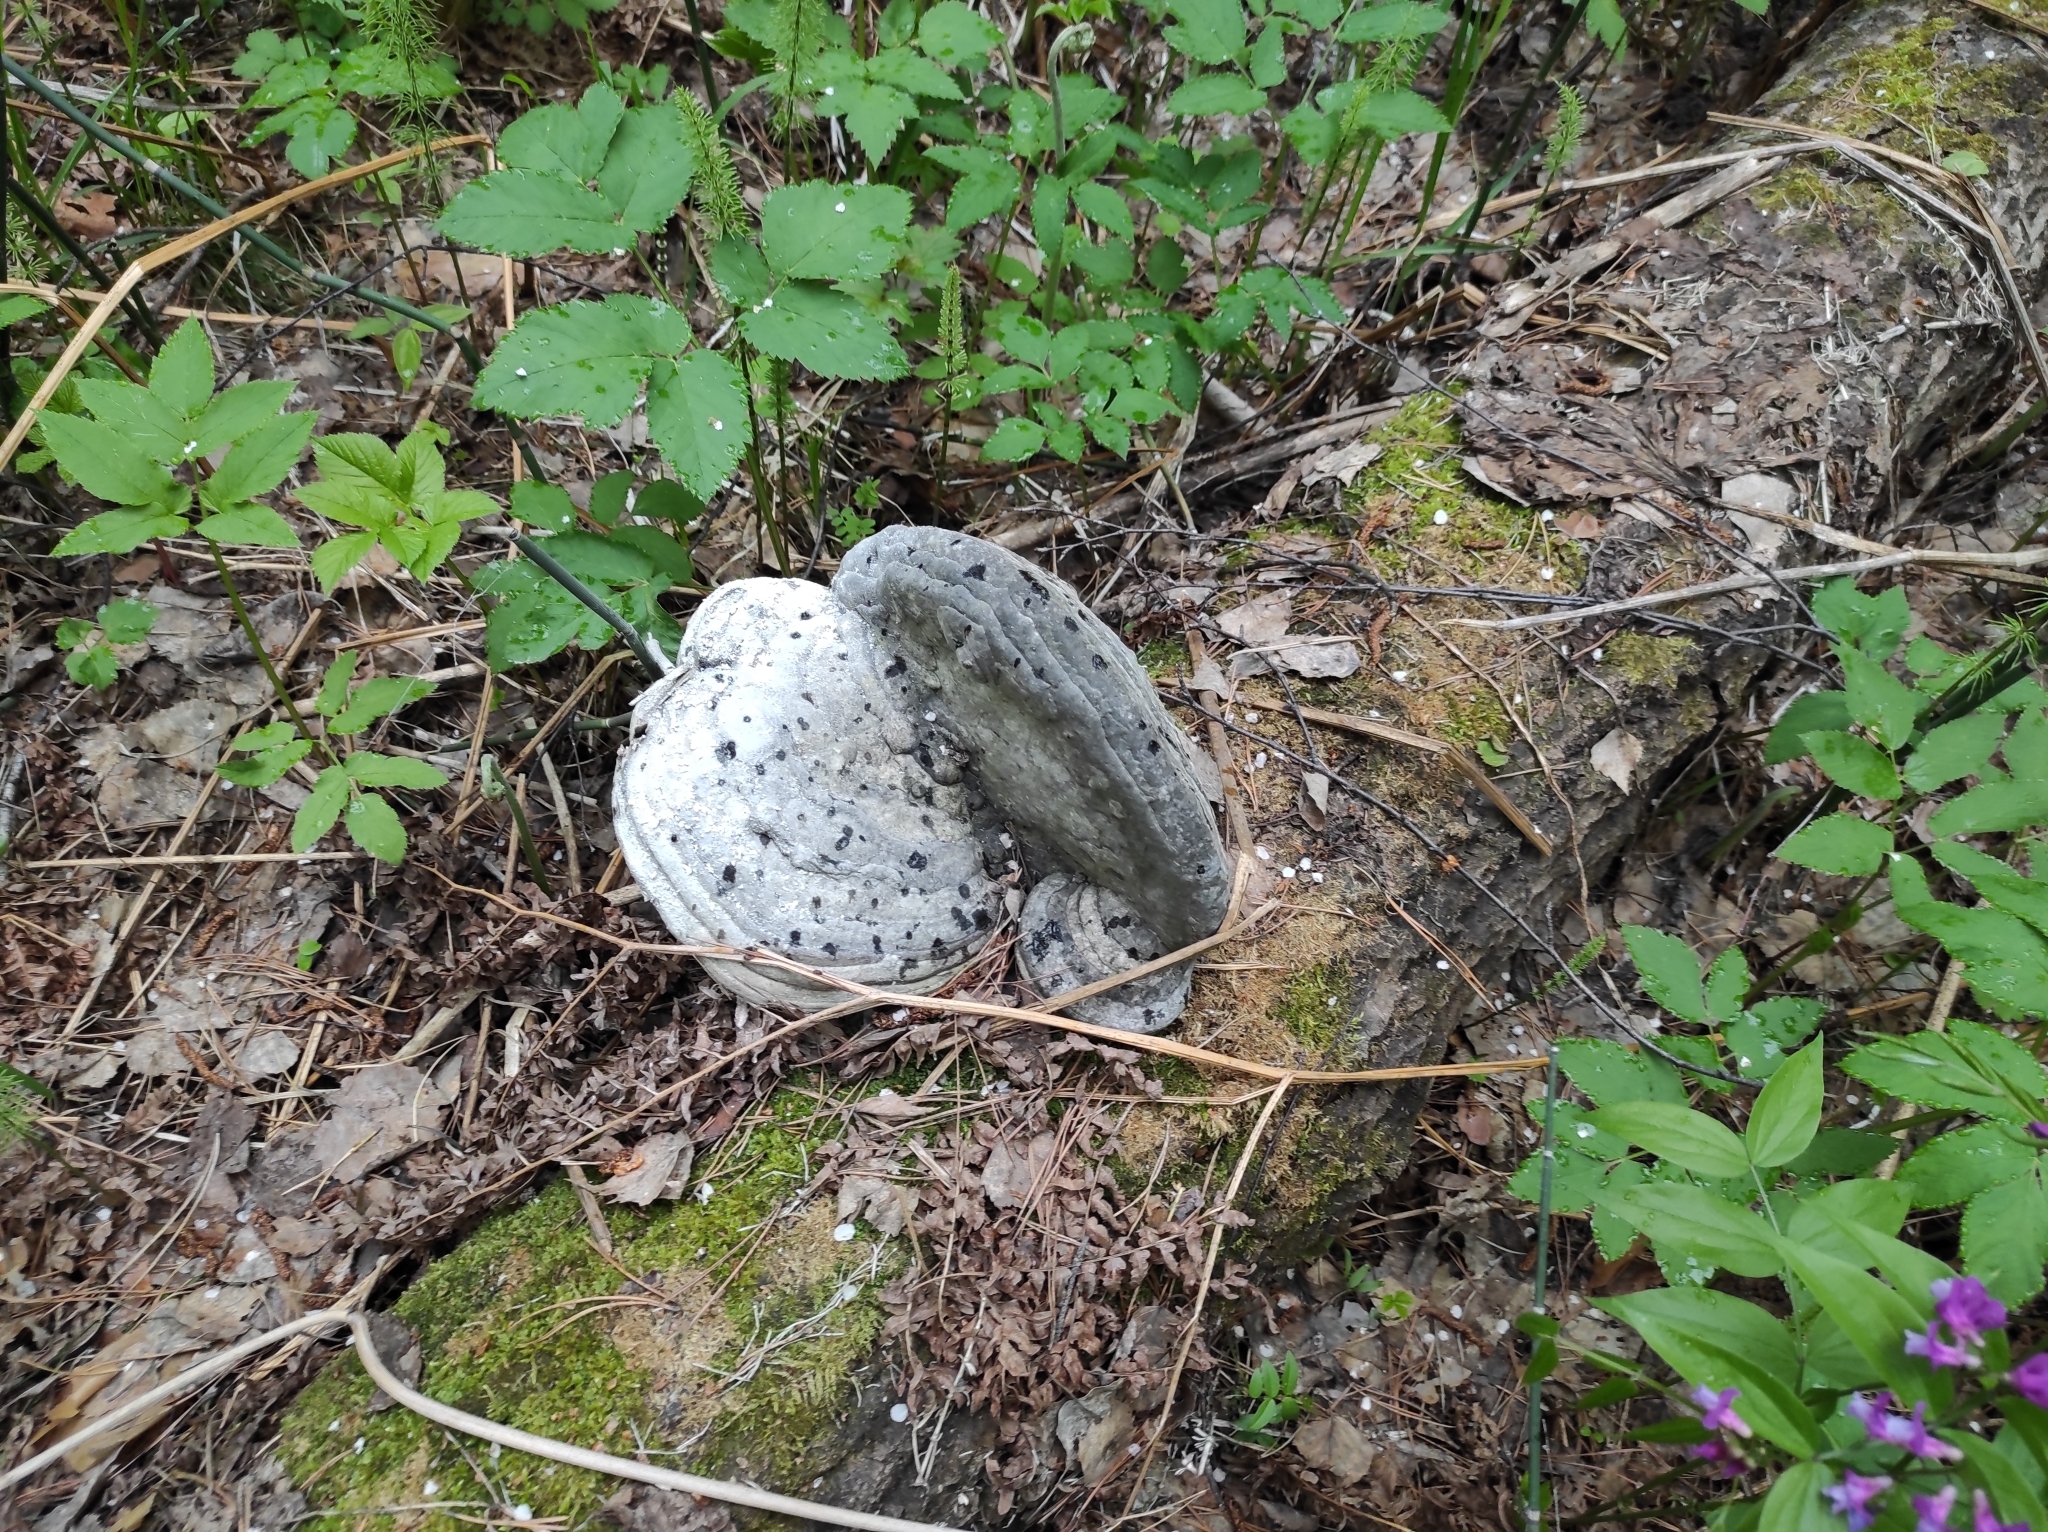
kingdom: Fungi
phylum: Basidiomycota
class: Agaricomycetes
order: Polyporales
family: Polyporaceae
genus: Fomes
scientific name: Fomes fomentarius
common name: Hoof fungus
